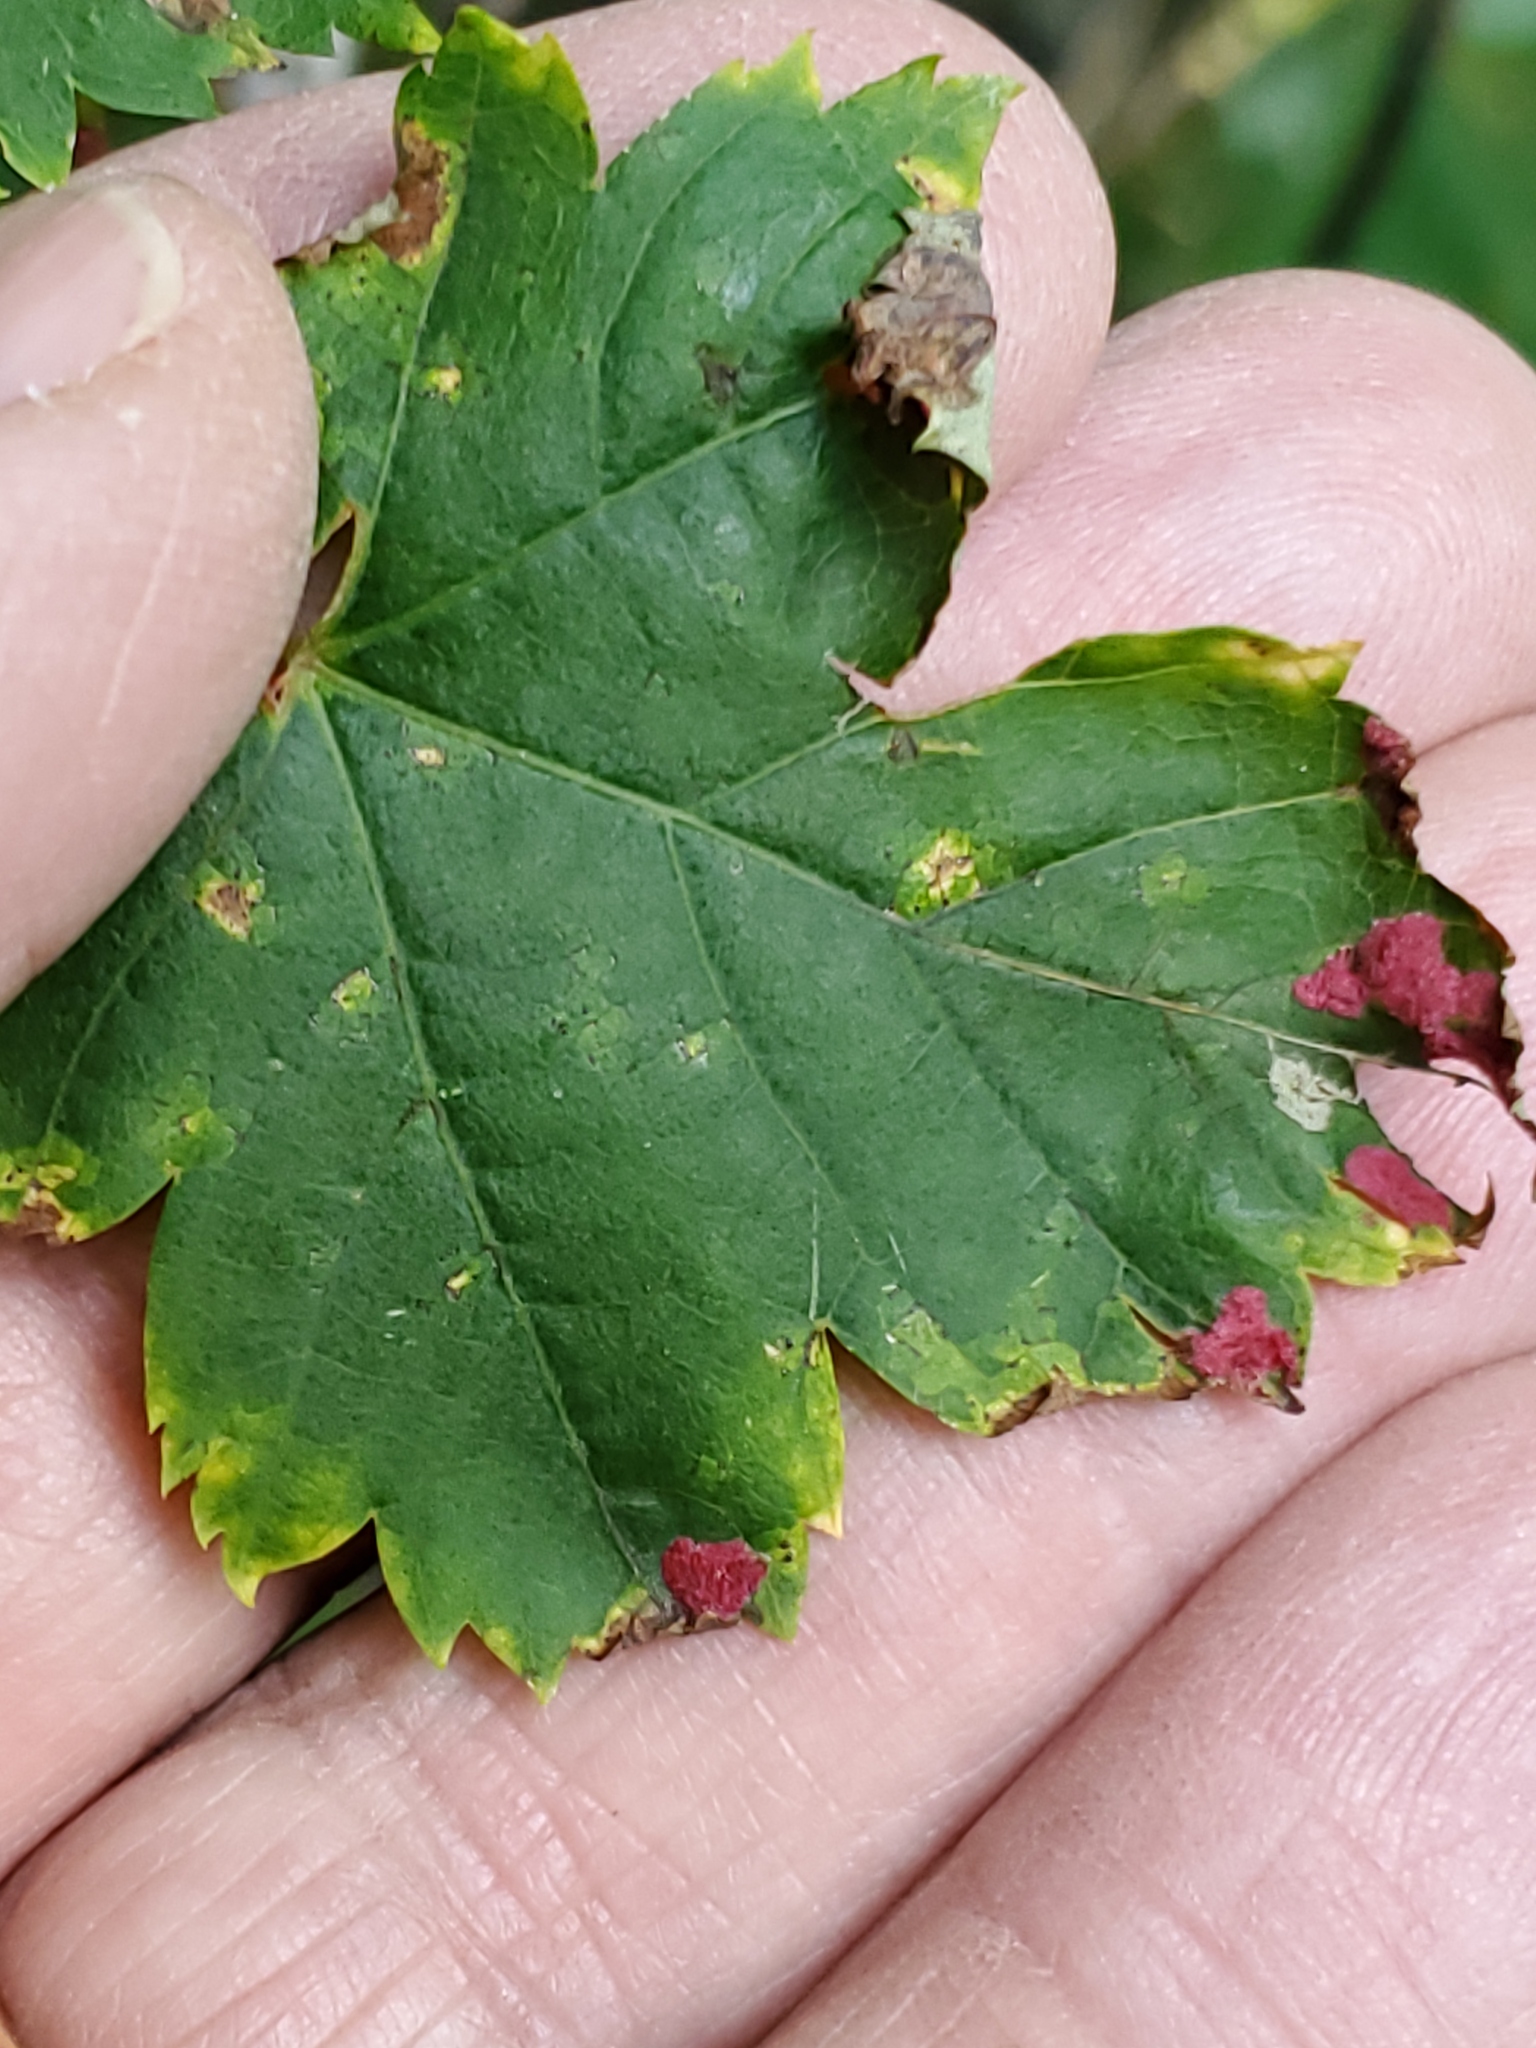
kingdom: Animalia
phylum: Arthropoda
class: Arachnida
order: Trombidiformes
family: Eriophyidae
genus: Aceria
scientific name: Aceria
